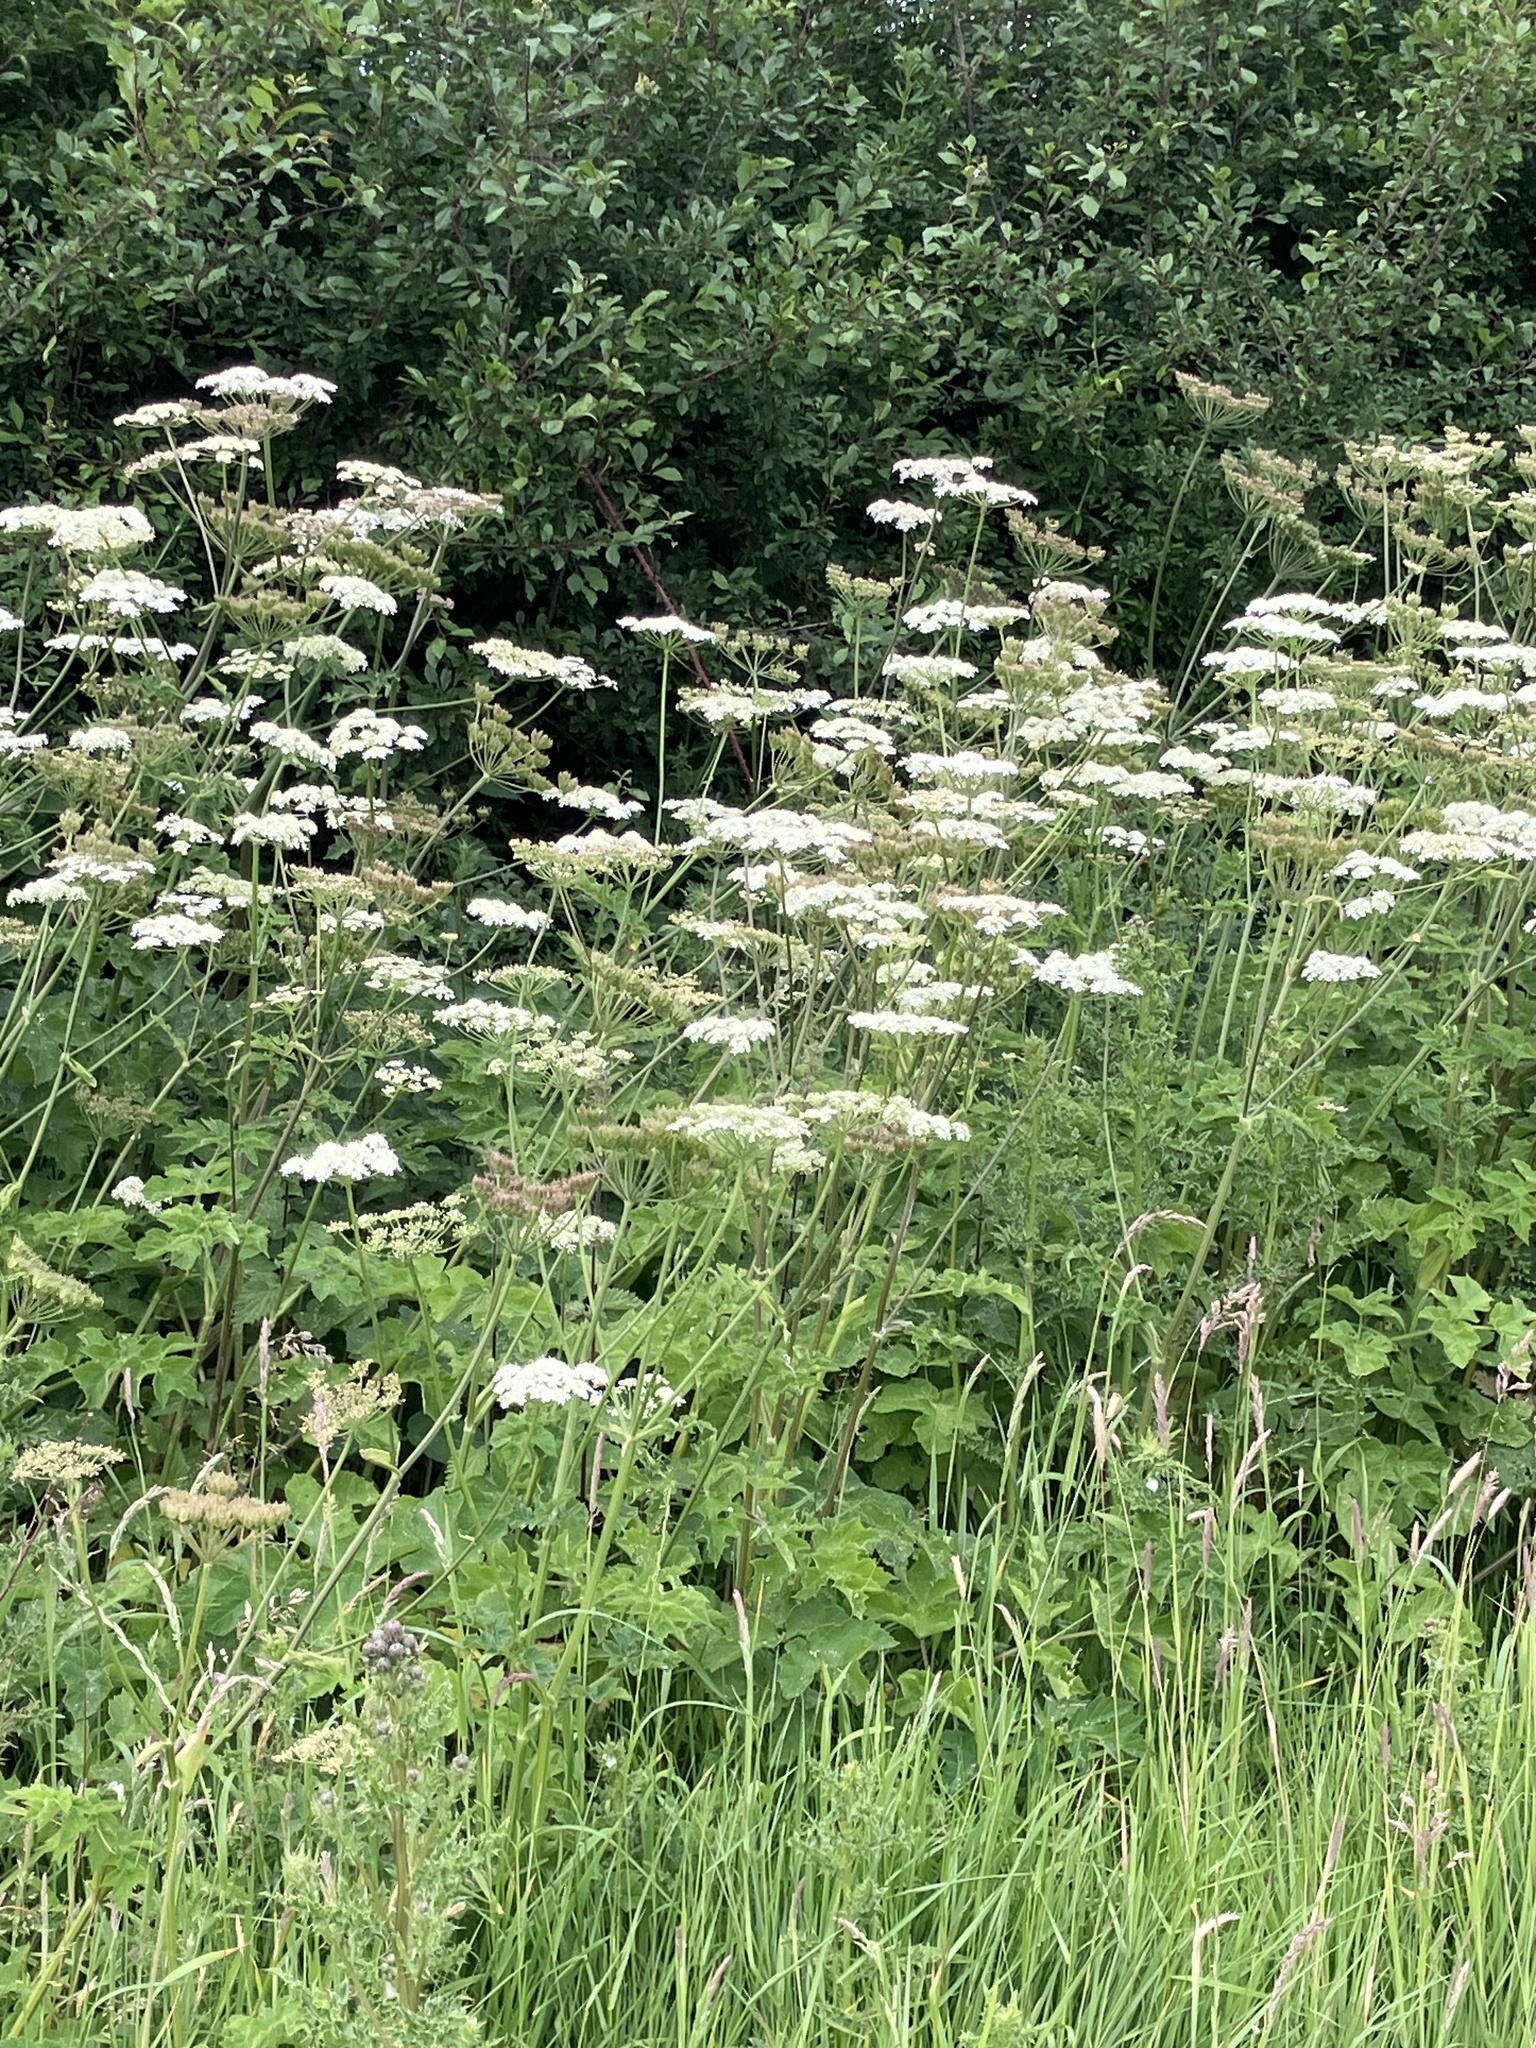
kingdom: Plantae
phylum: Tracheophyta
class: Magnoliopsida
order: Apiales
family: Apiaceae
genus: Heracleum
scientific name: Heracleum sphondylium
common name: Hogweed
